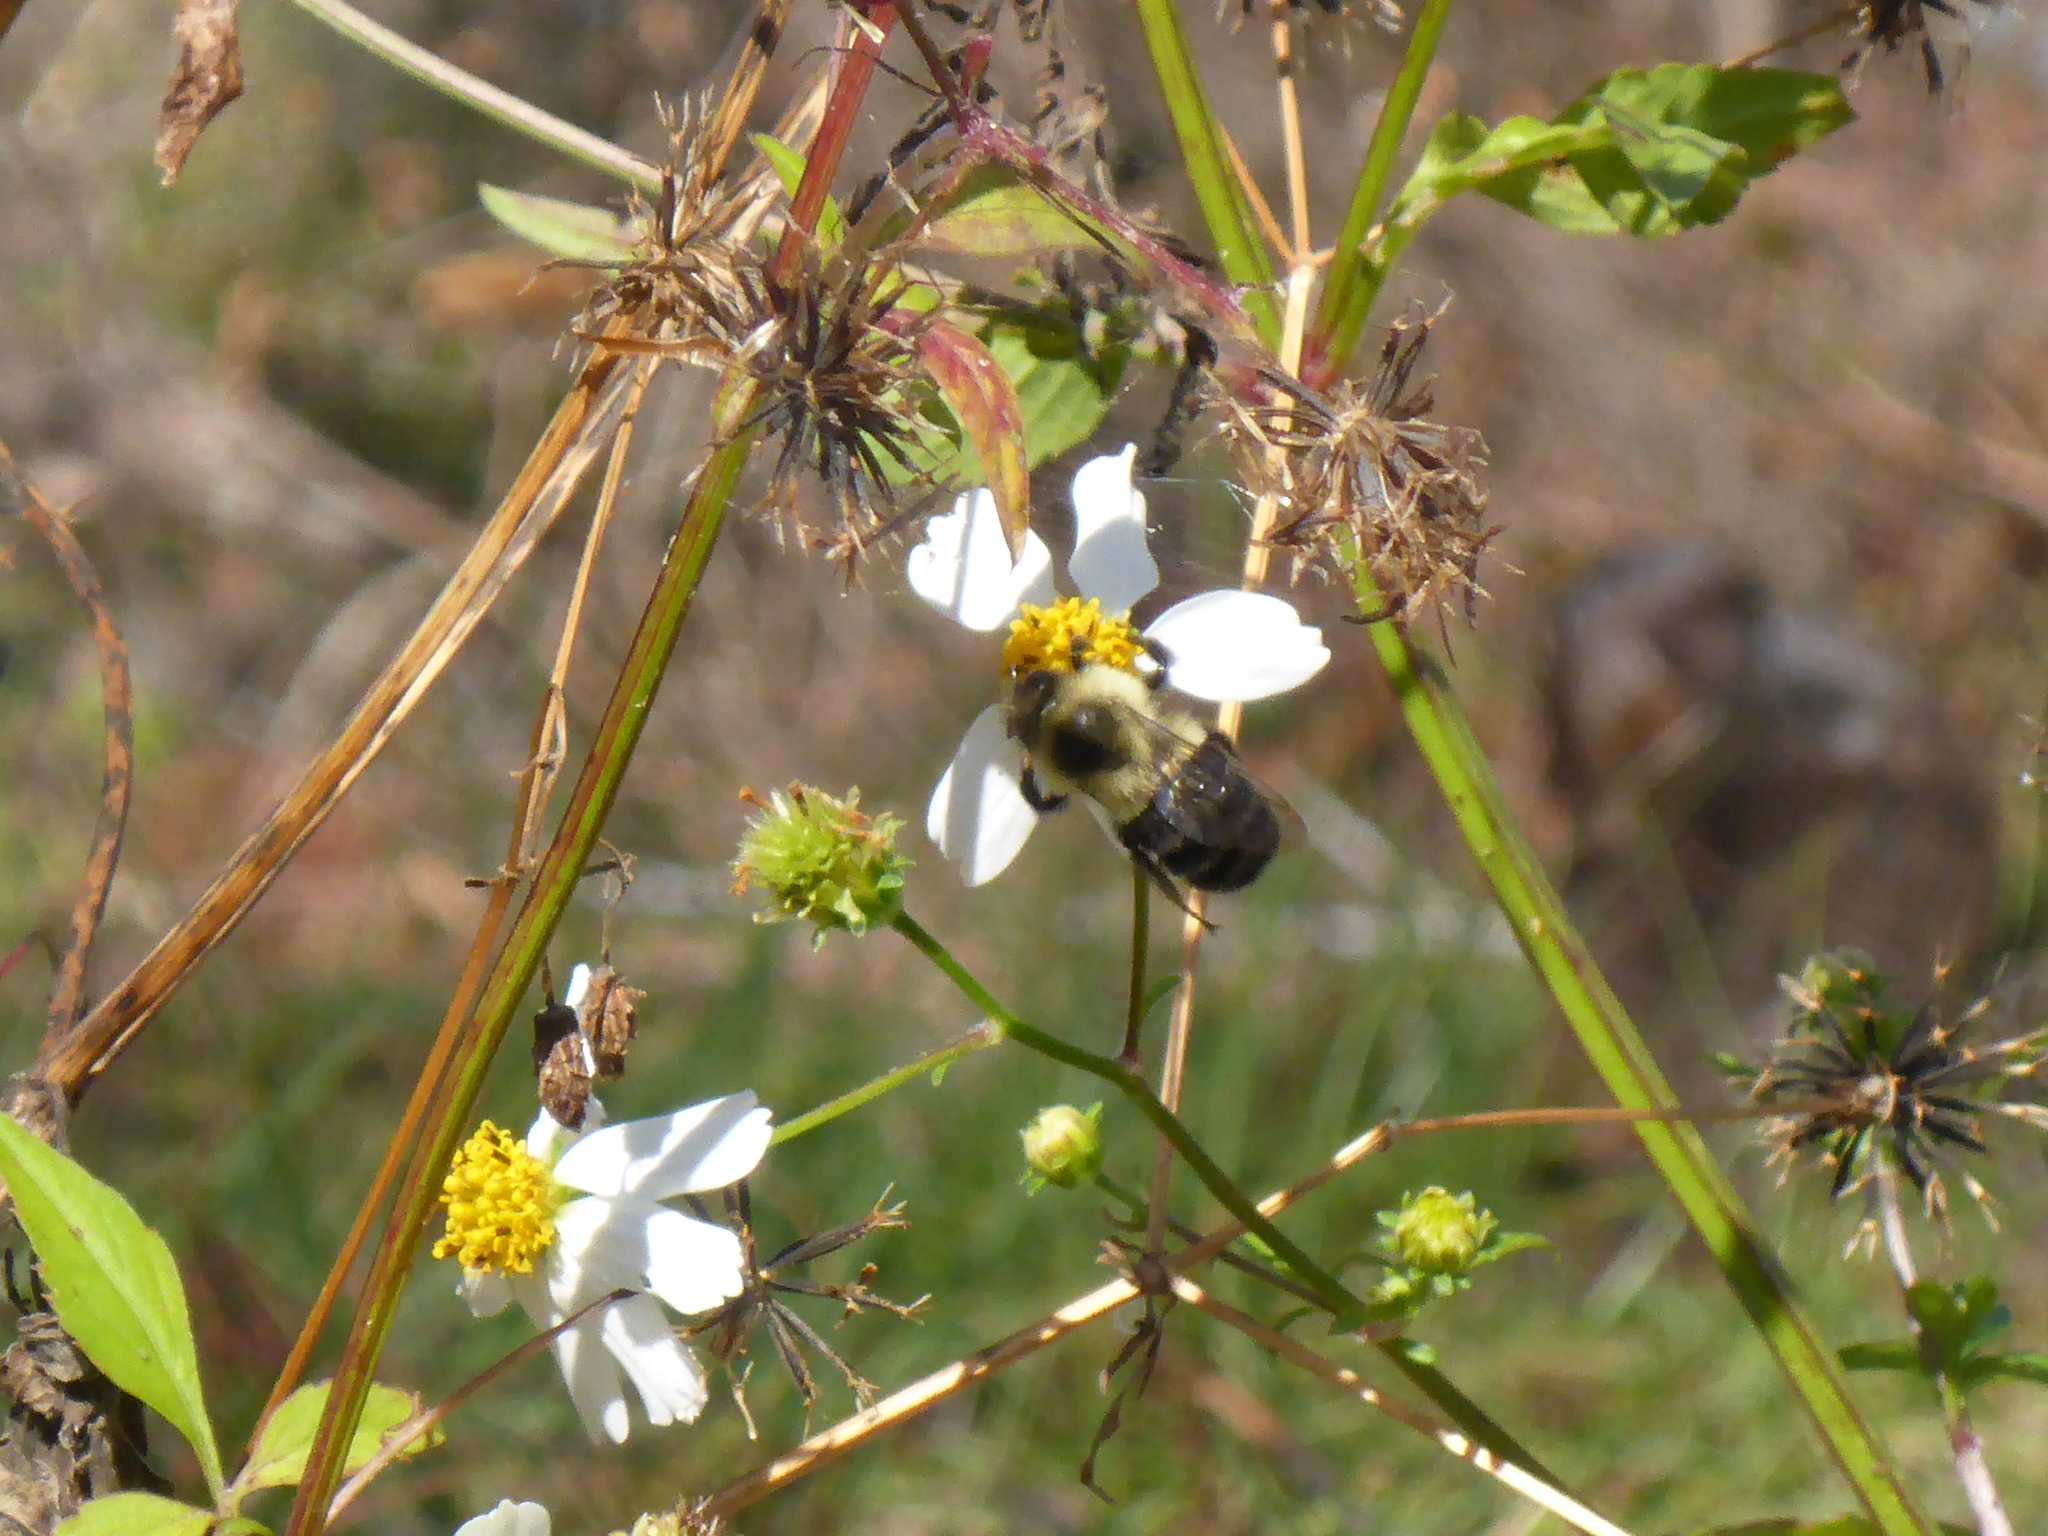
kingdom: Animalia
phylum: Arthropoda
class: Insecta
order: Hymenoptera
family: Apidae
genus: Bombus
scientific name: Bombus impatiens
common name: Common eastern bumble bee
